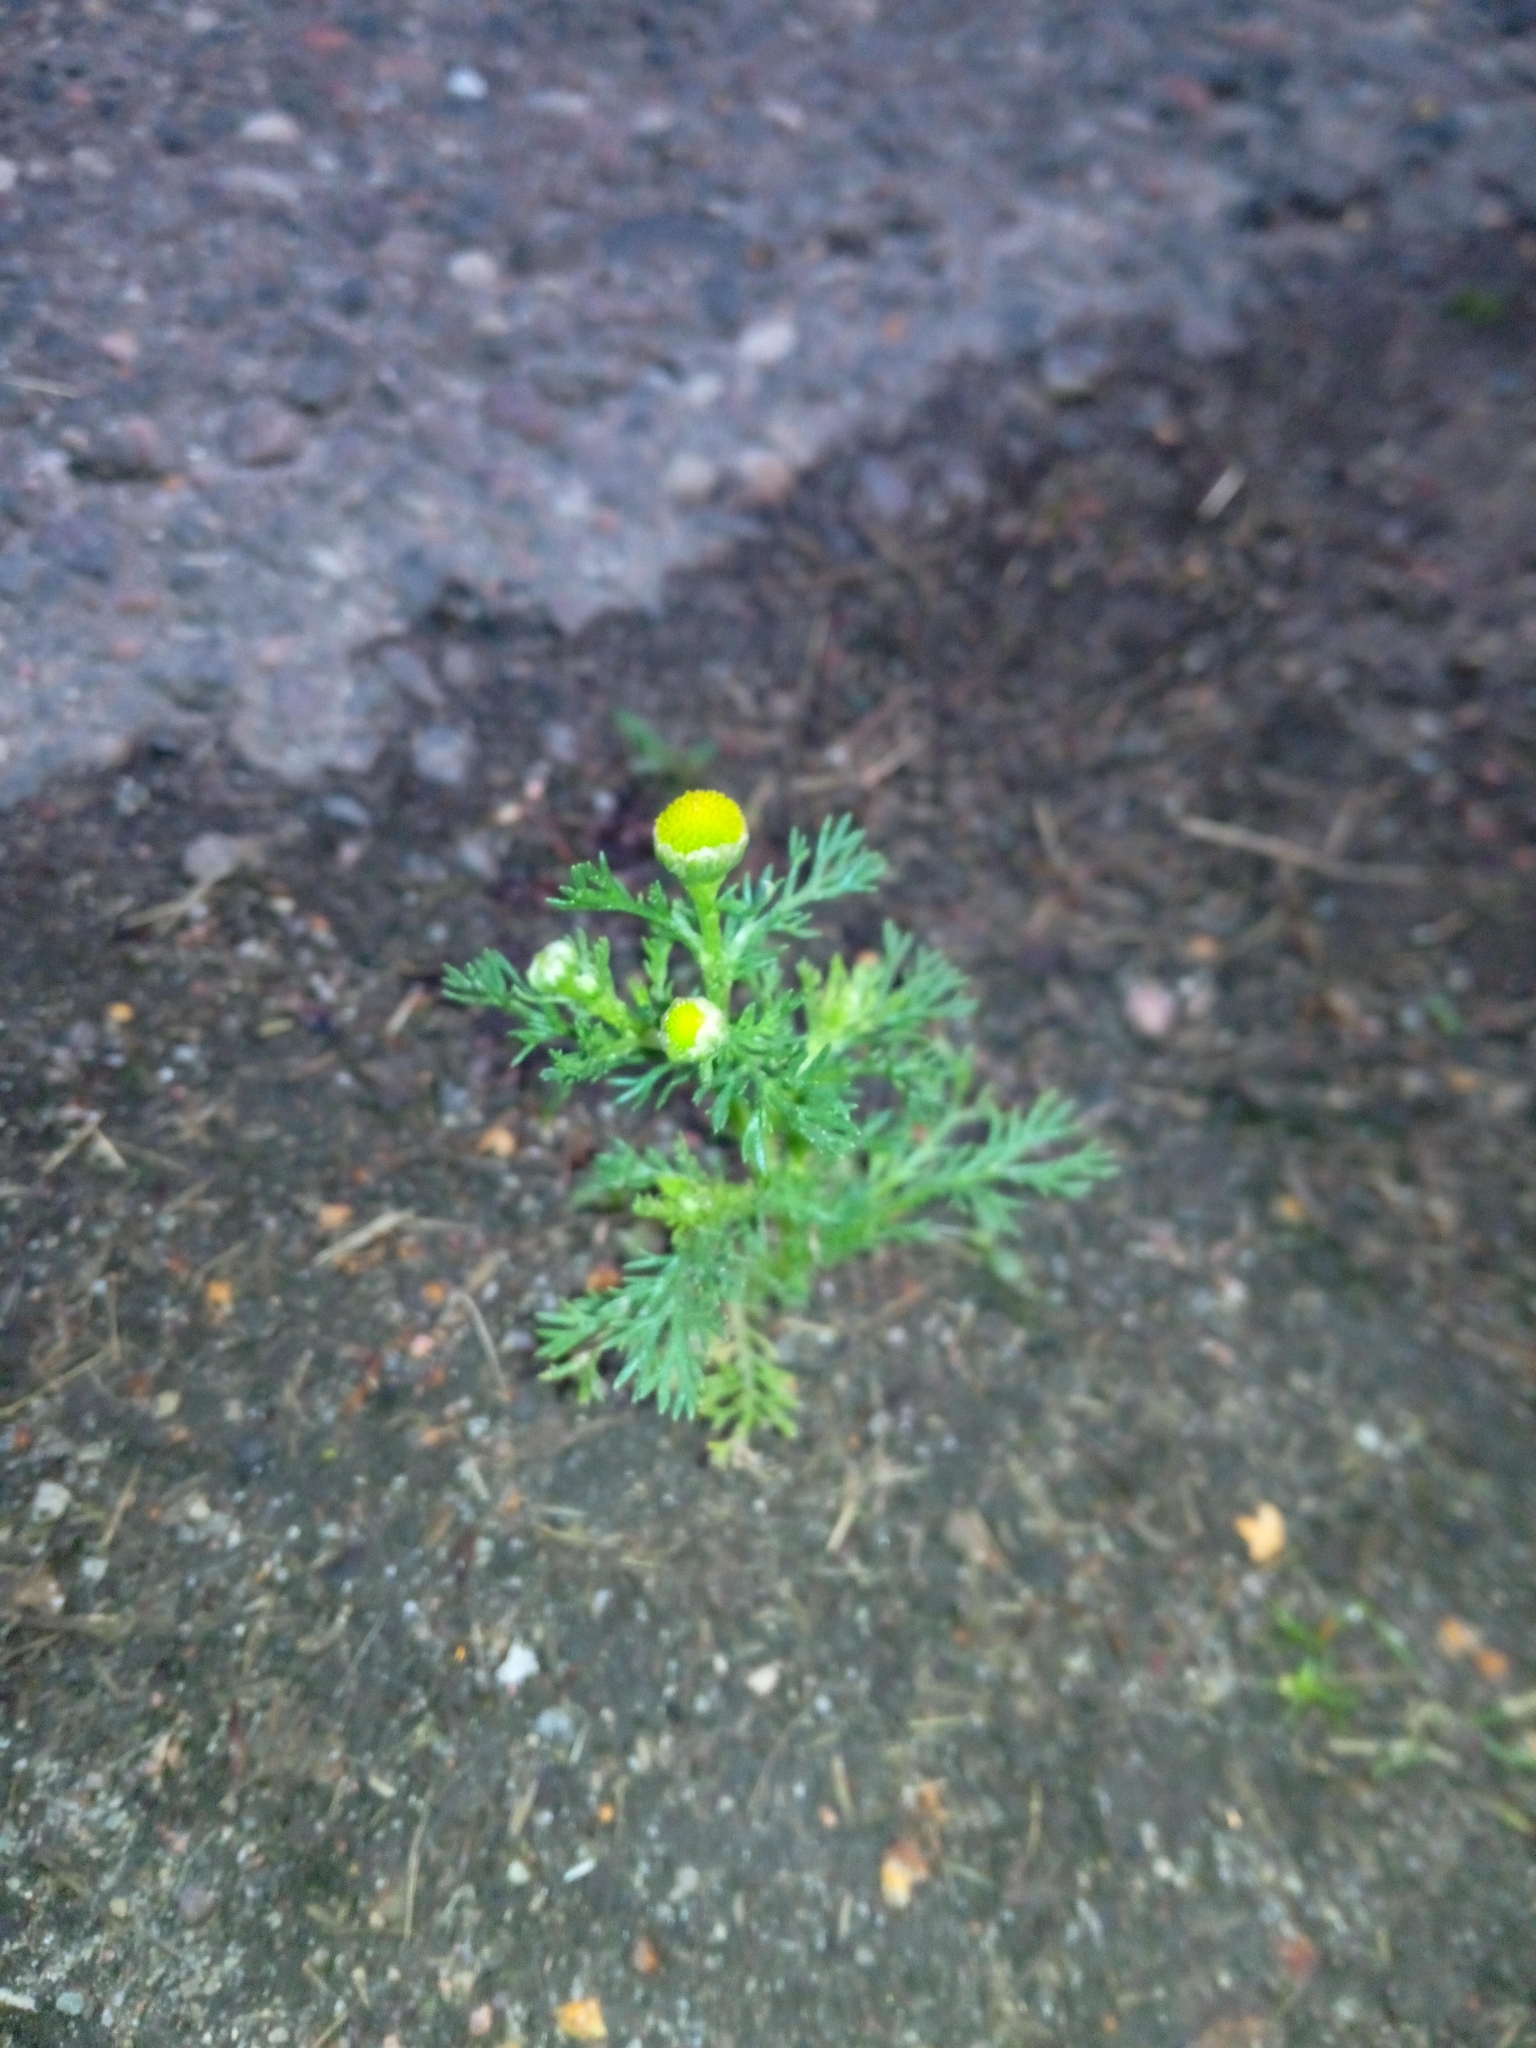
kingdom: Plantae
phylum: Tracheophyta
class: Magnoliopsida
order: Asterales
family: Asteraceae
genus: Matricaria
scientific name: Matricaria discoidea
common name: Disc mayweed
